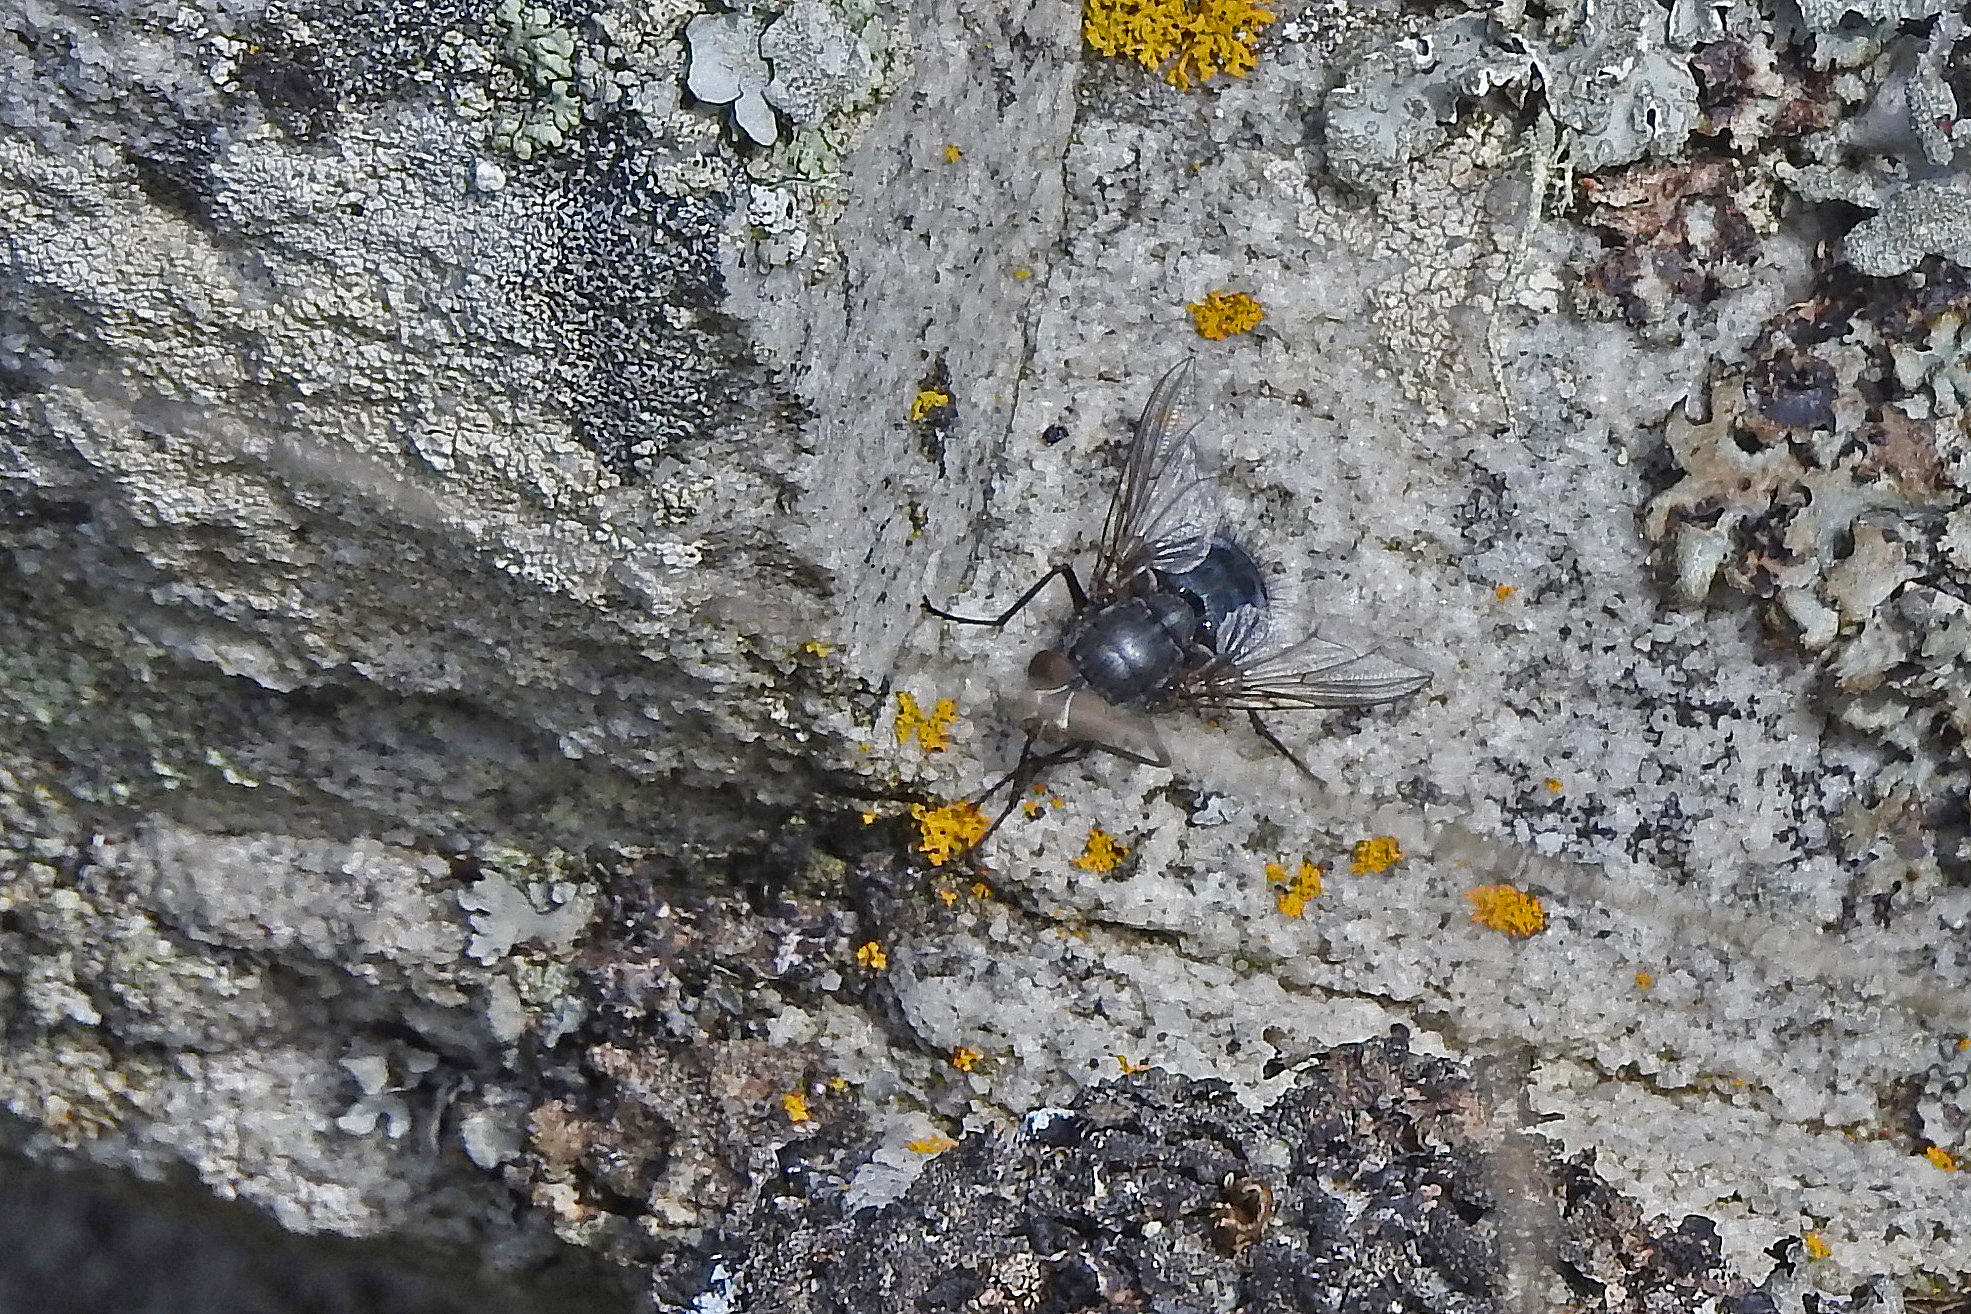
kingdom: Animalia
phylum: Arthropoda
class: Insecta
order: Diptera
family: Calliphoridae
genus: Calliphora
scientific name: Calliphora vicina
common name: Common blow flie
